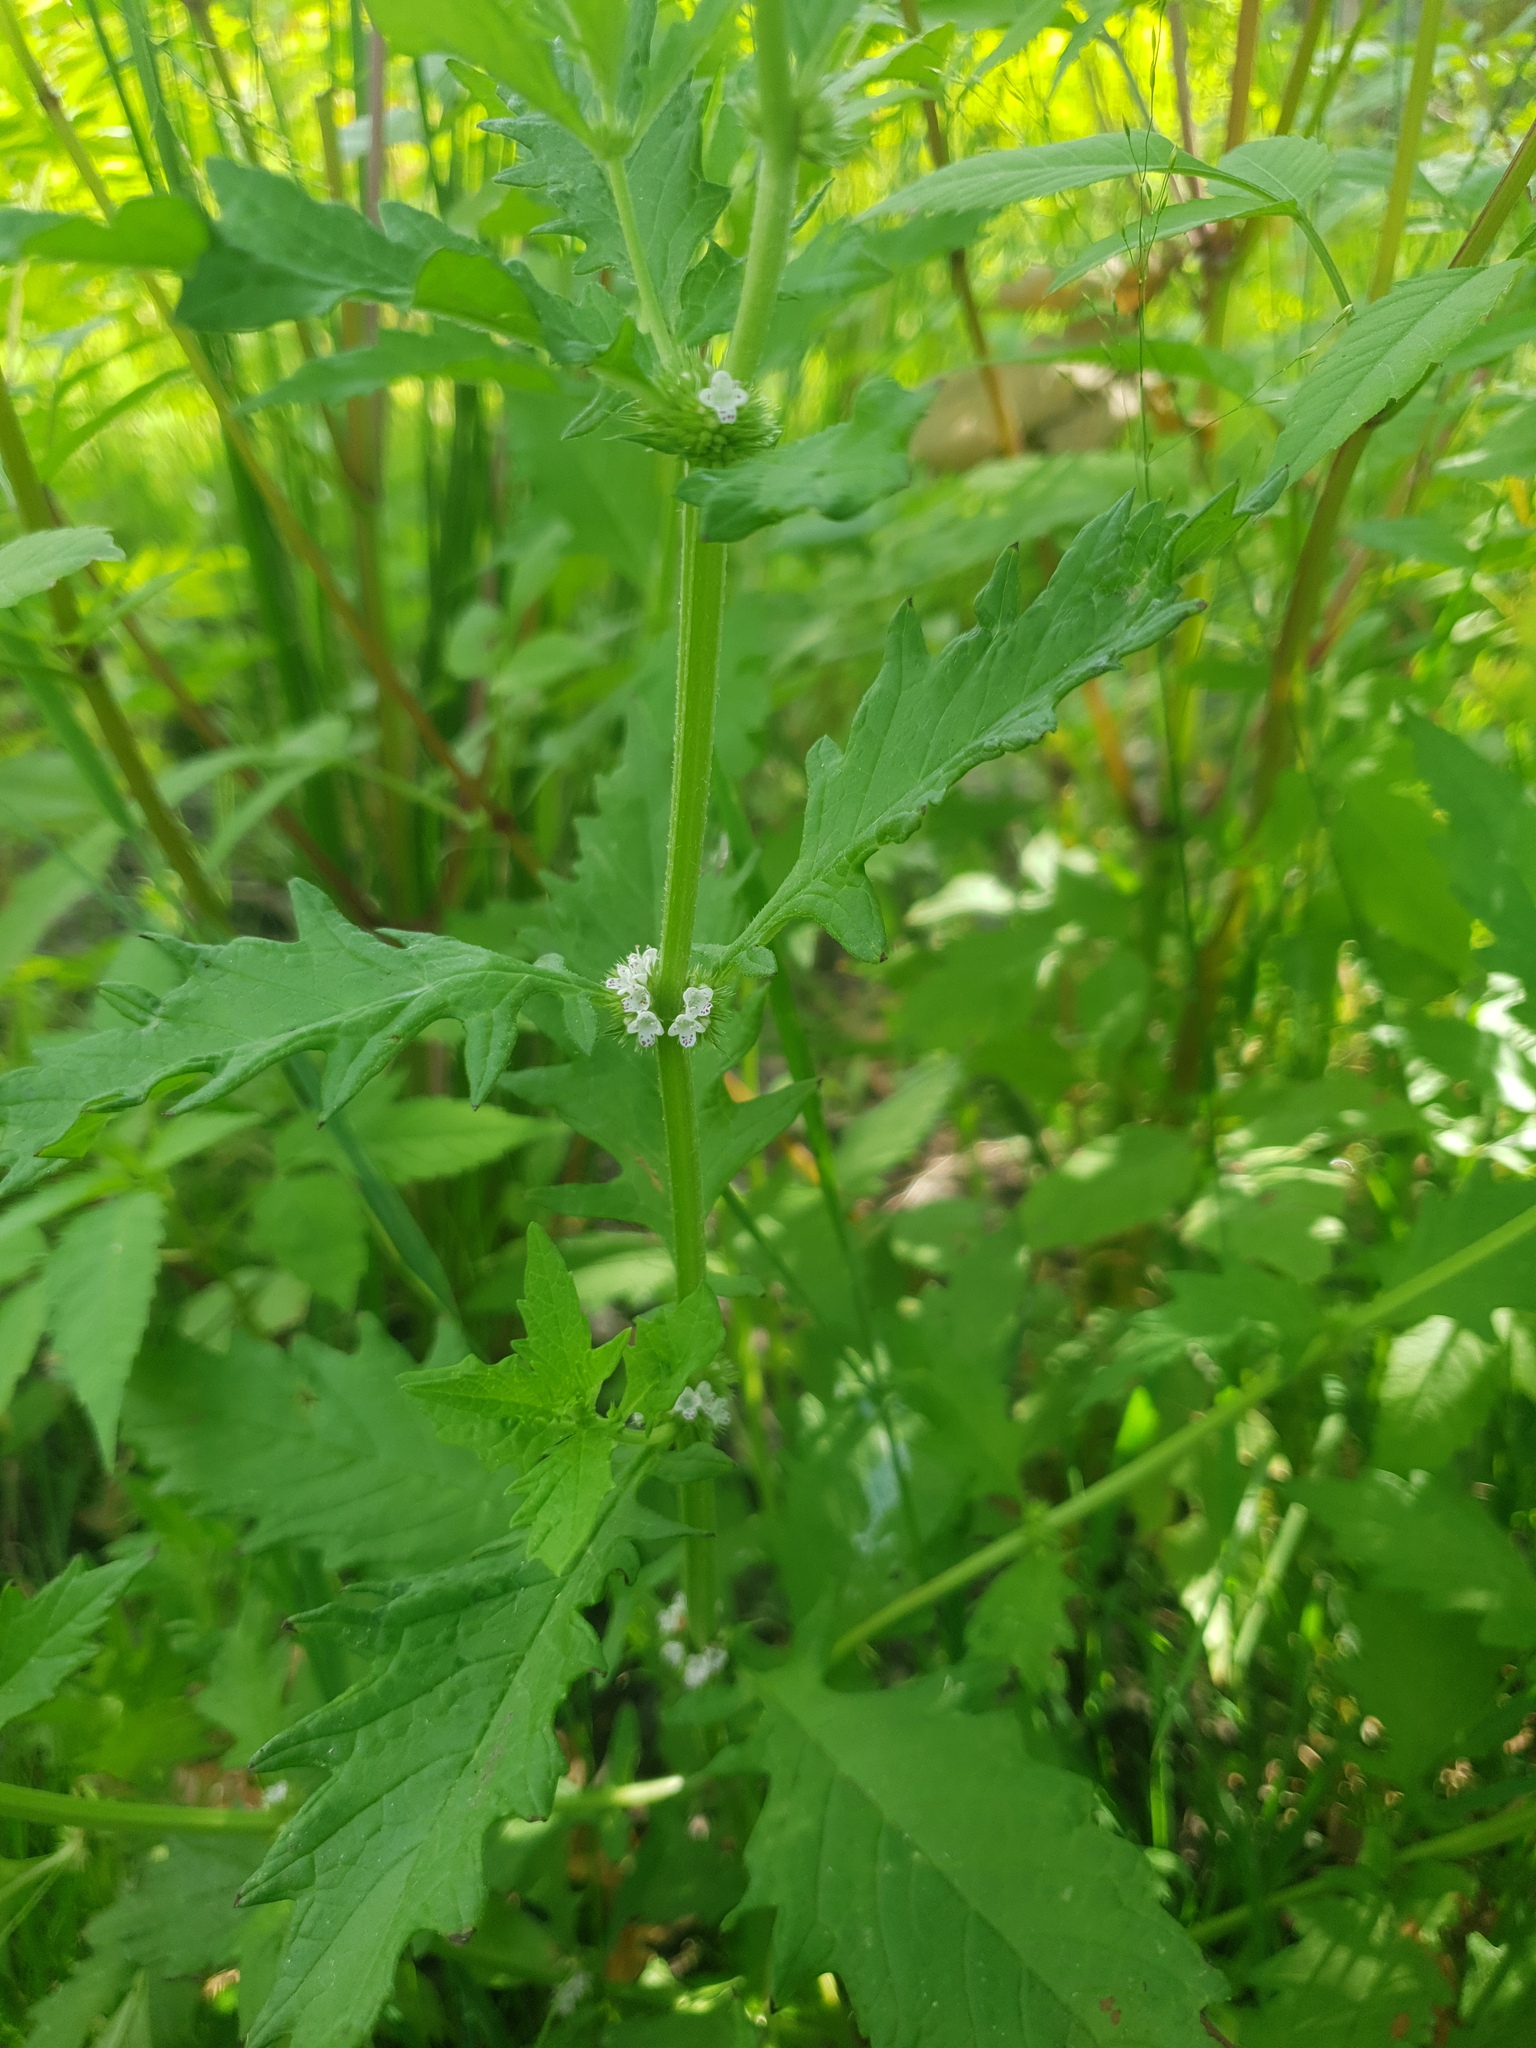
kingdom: Plantae
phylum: Tracheophyta
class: Magnoliopsida
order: Lamiales
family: Lamiaceae
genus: Lycopus
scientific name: Lycopus europaeus
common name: European bugleweed
